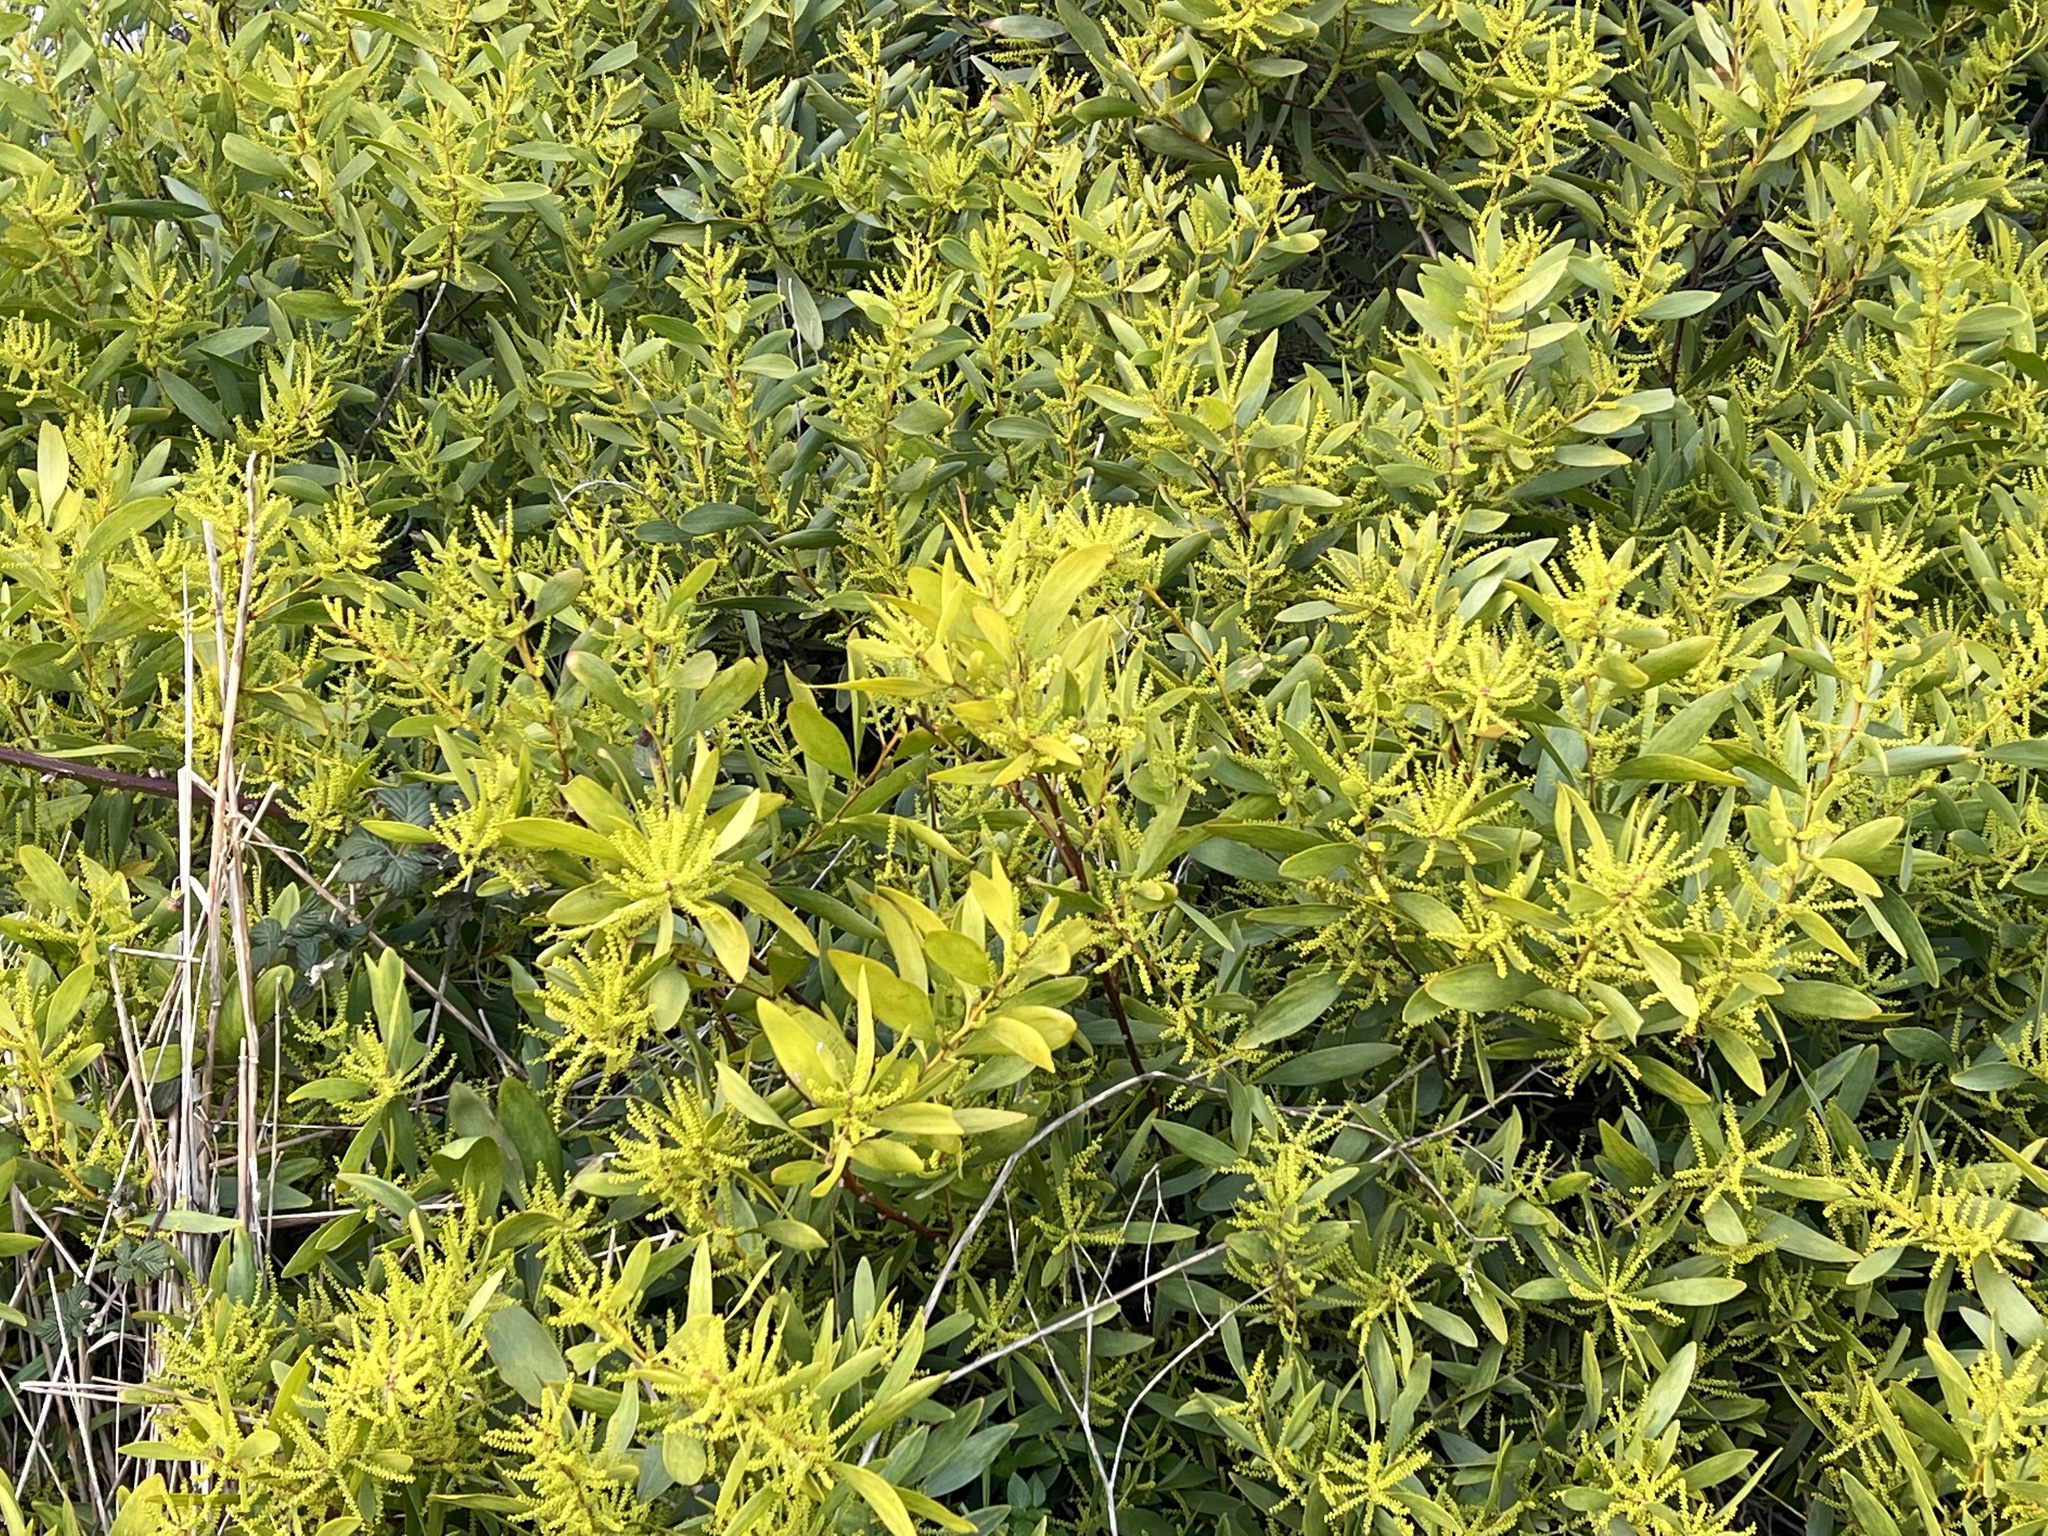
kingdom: Plantae
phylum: Tracheophyta
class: Magnoliopsida
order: Fabales
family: Fabaceae
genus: Acacia
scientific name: Acacia longifolia
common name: Sydney golden wattle
